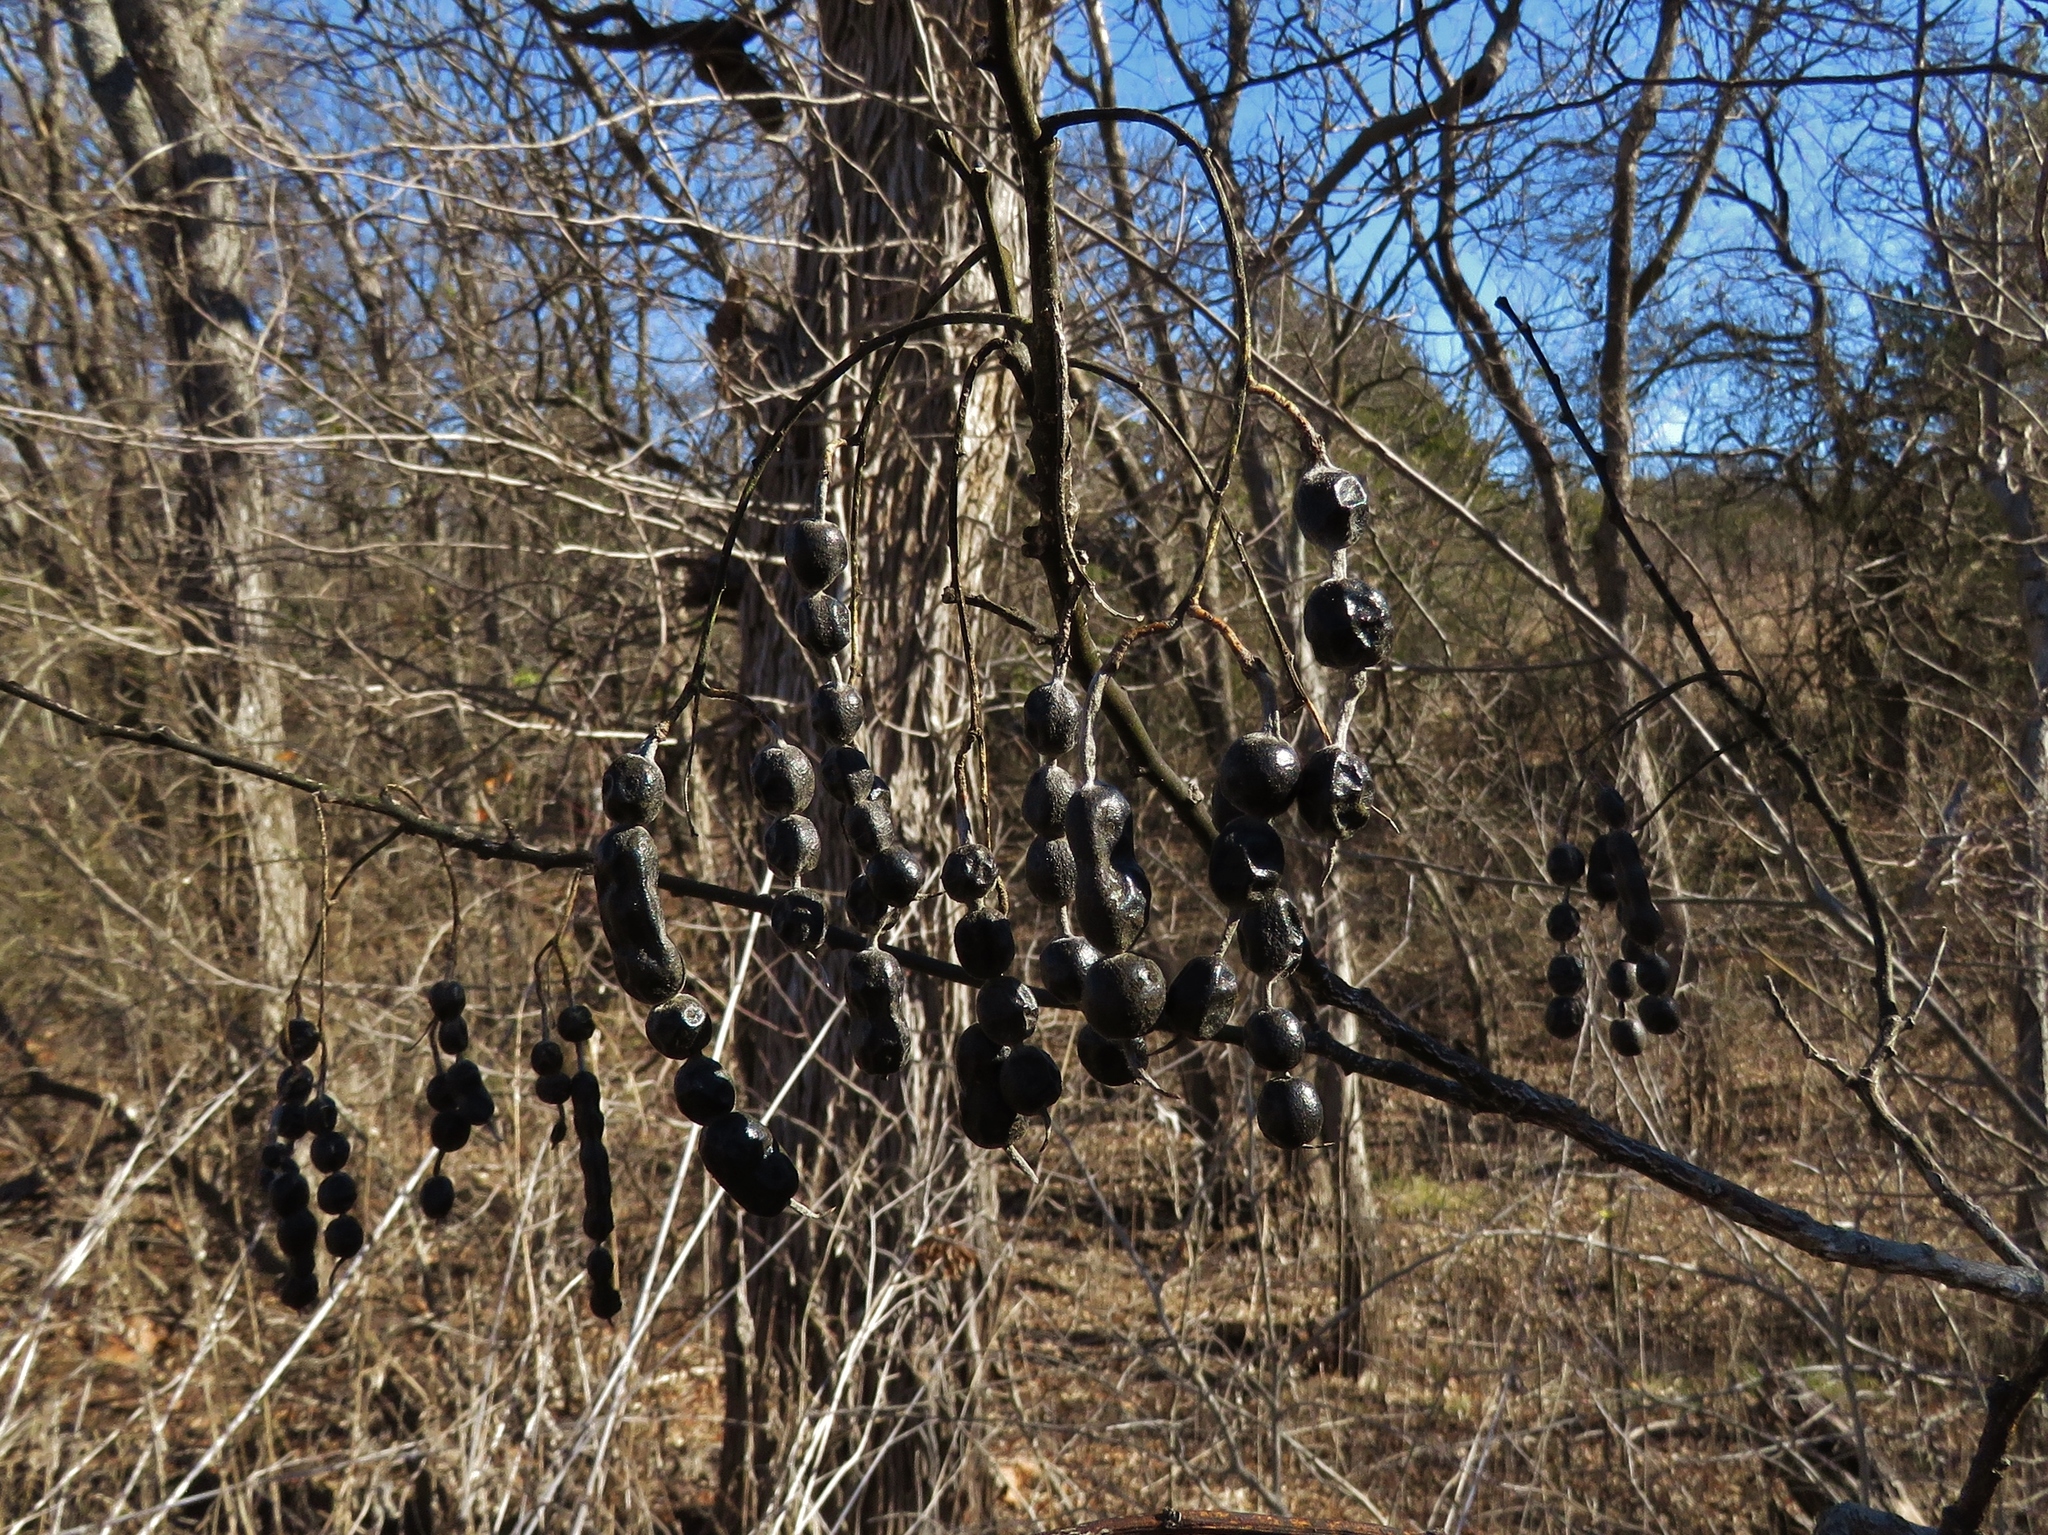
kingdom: Plantae
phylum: Tracheophyta
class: Magnoliopsida
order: Fabales
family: Fabaceae
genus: Styphnolobium
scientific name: Styphnolobium affine
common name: Texas sophora
